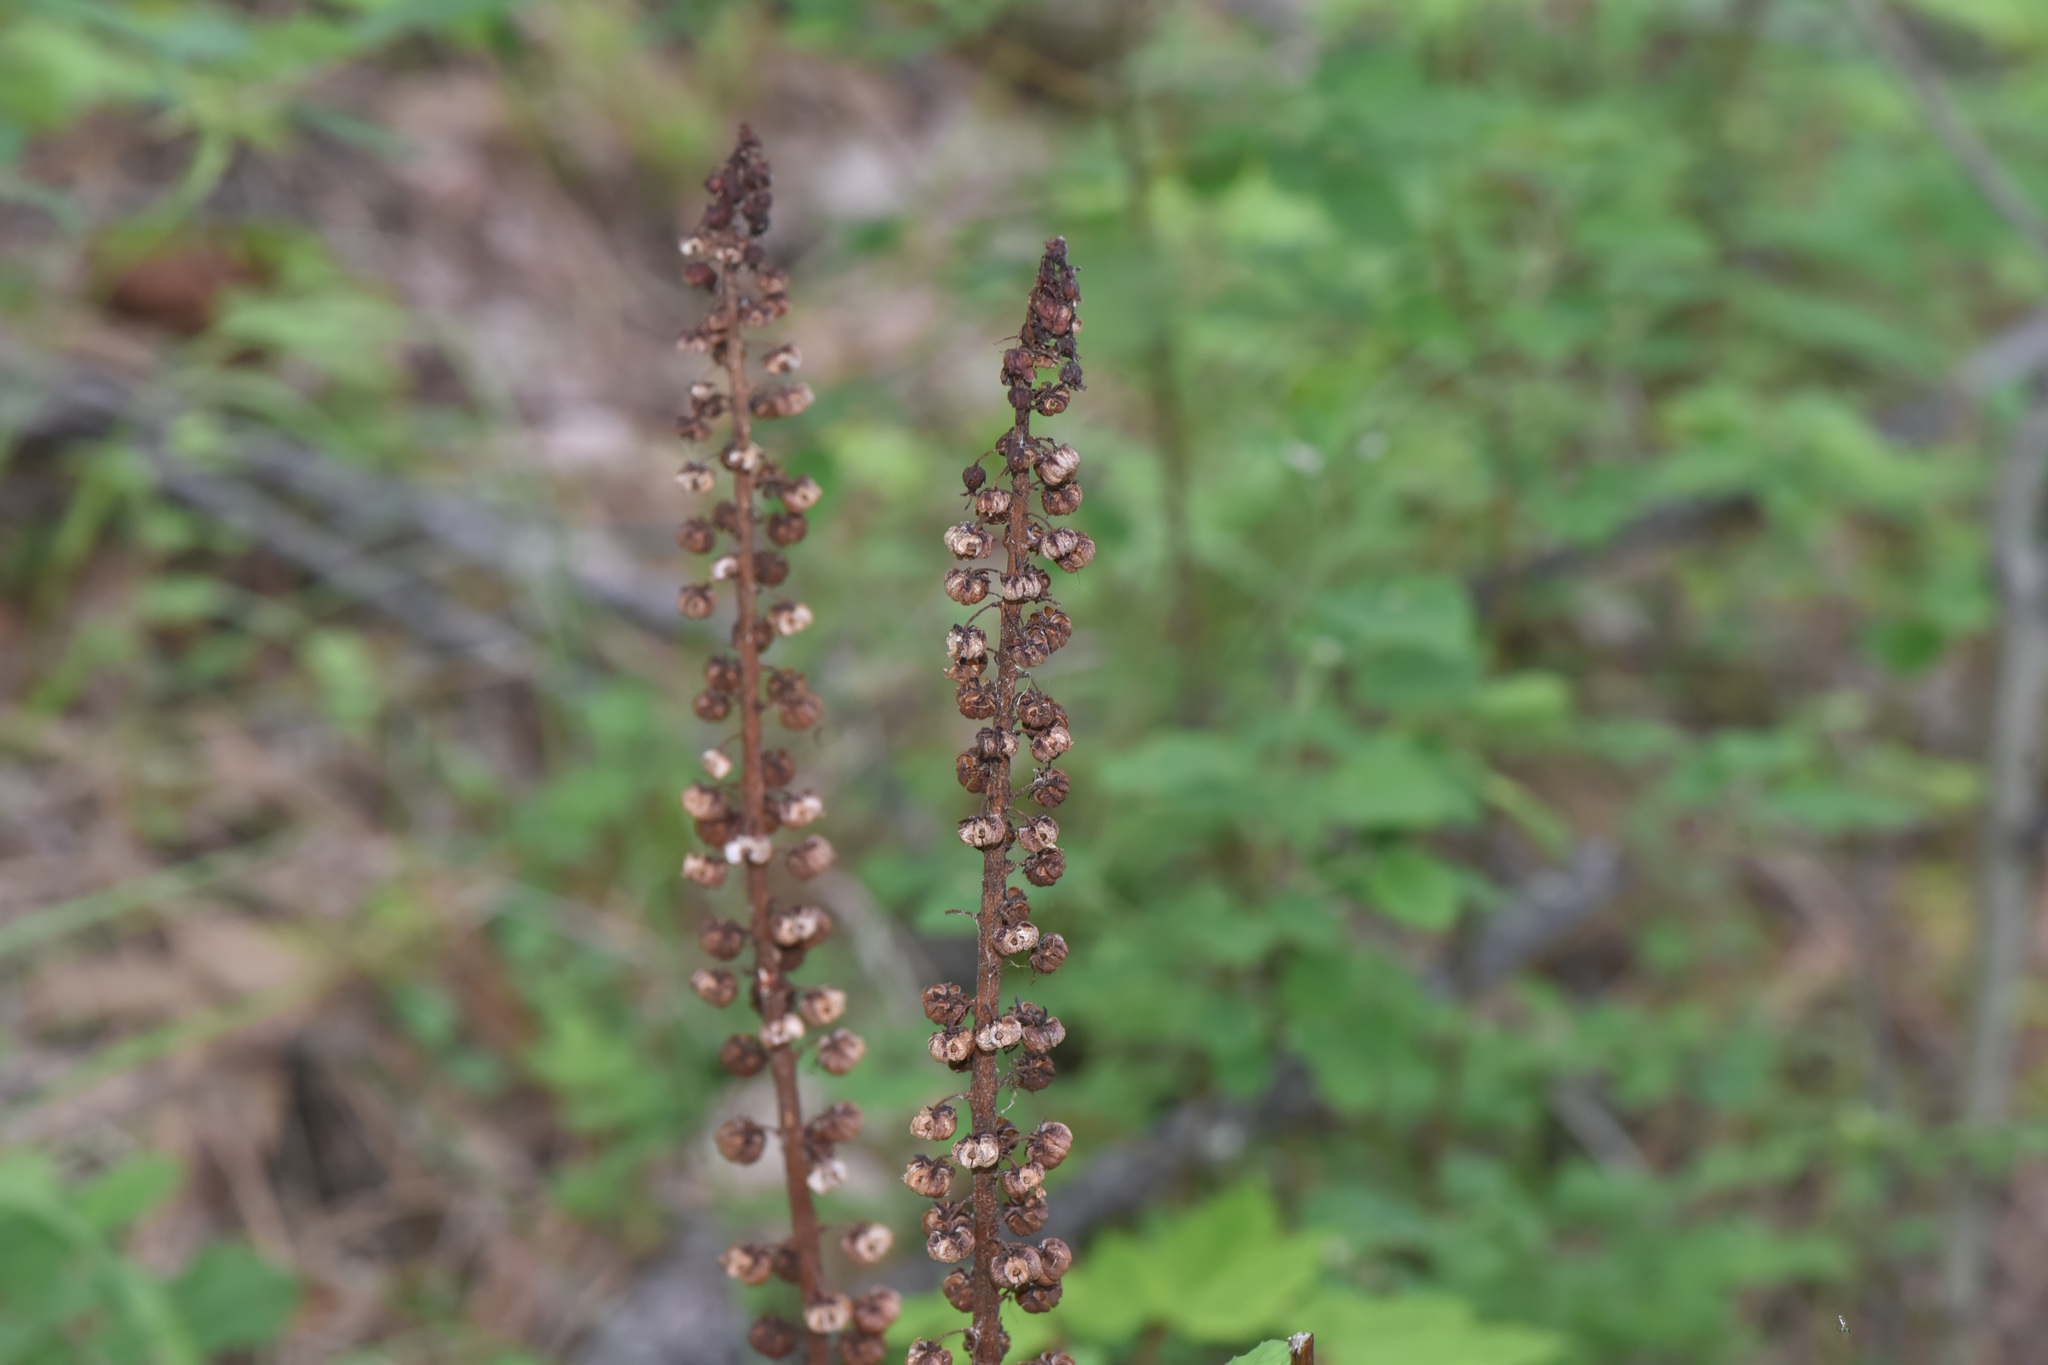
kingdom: Plantae
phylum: Tracheophyta
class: Magnoliopsida
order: Ericales
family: Ericaceae
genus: Pterospora
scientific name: Pterospora andromedea
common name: Giant bird's-nest
